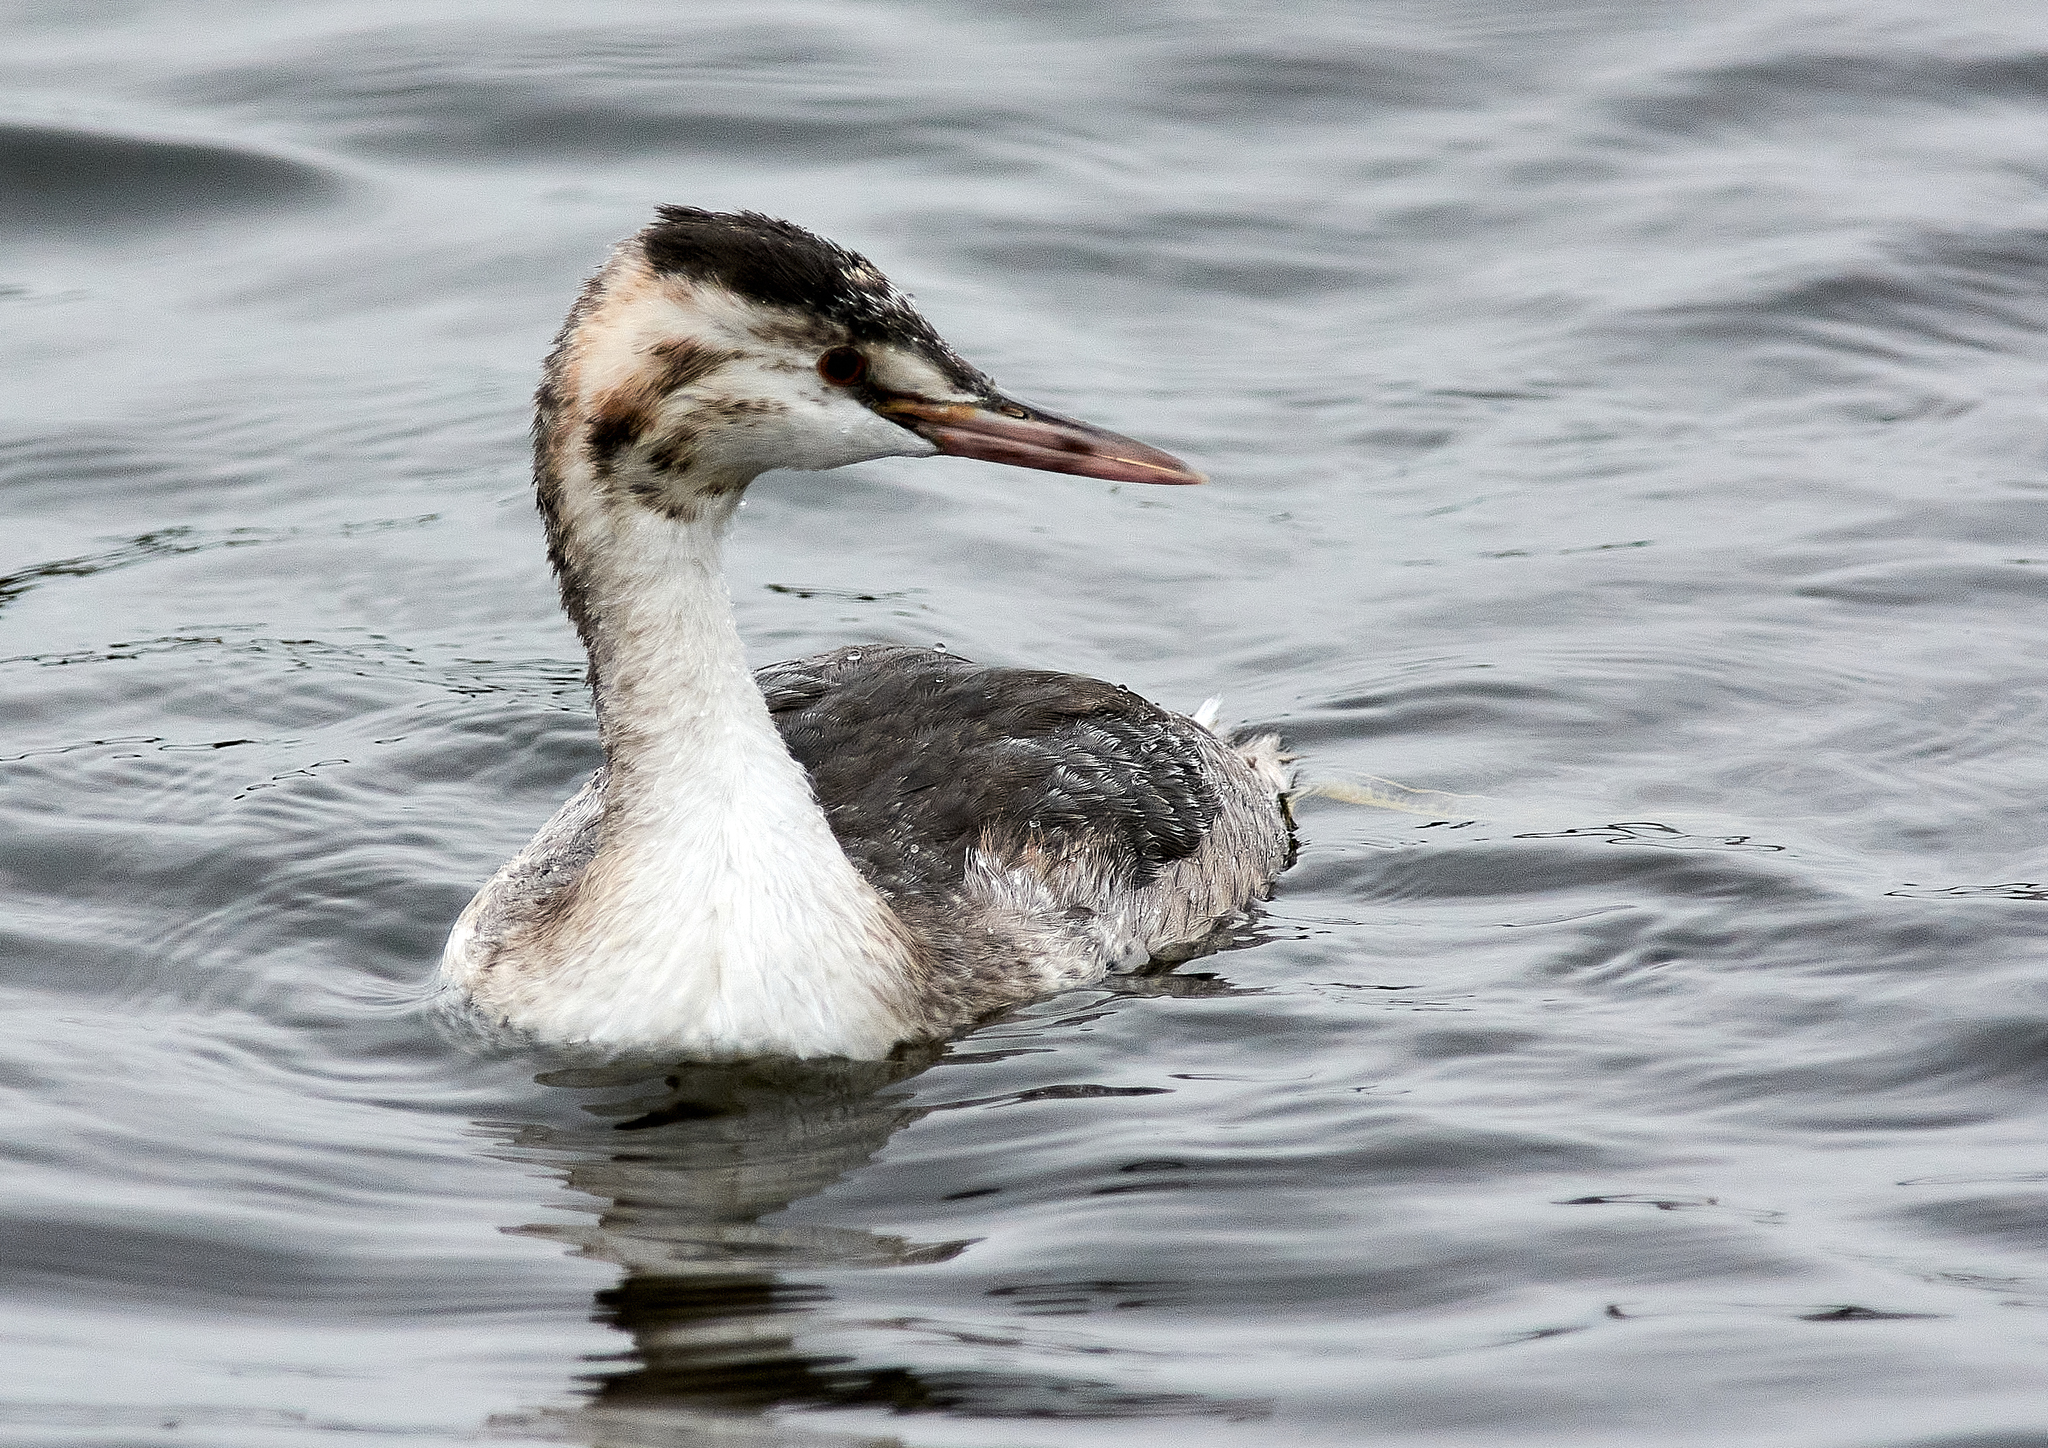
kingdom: Animalia
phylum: Chordata
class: Aves
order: Podicipediformes
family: Podicipedidae
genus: Podiceps
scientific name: Podiceps cristatus
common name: Great crested grebe
